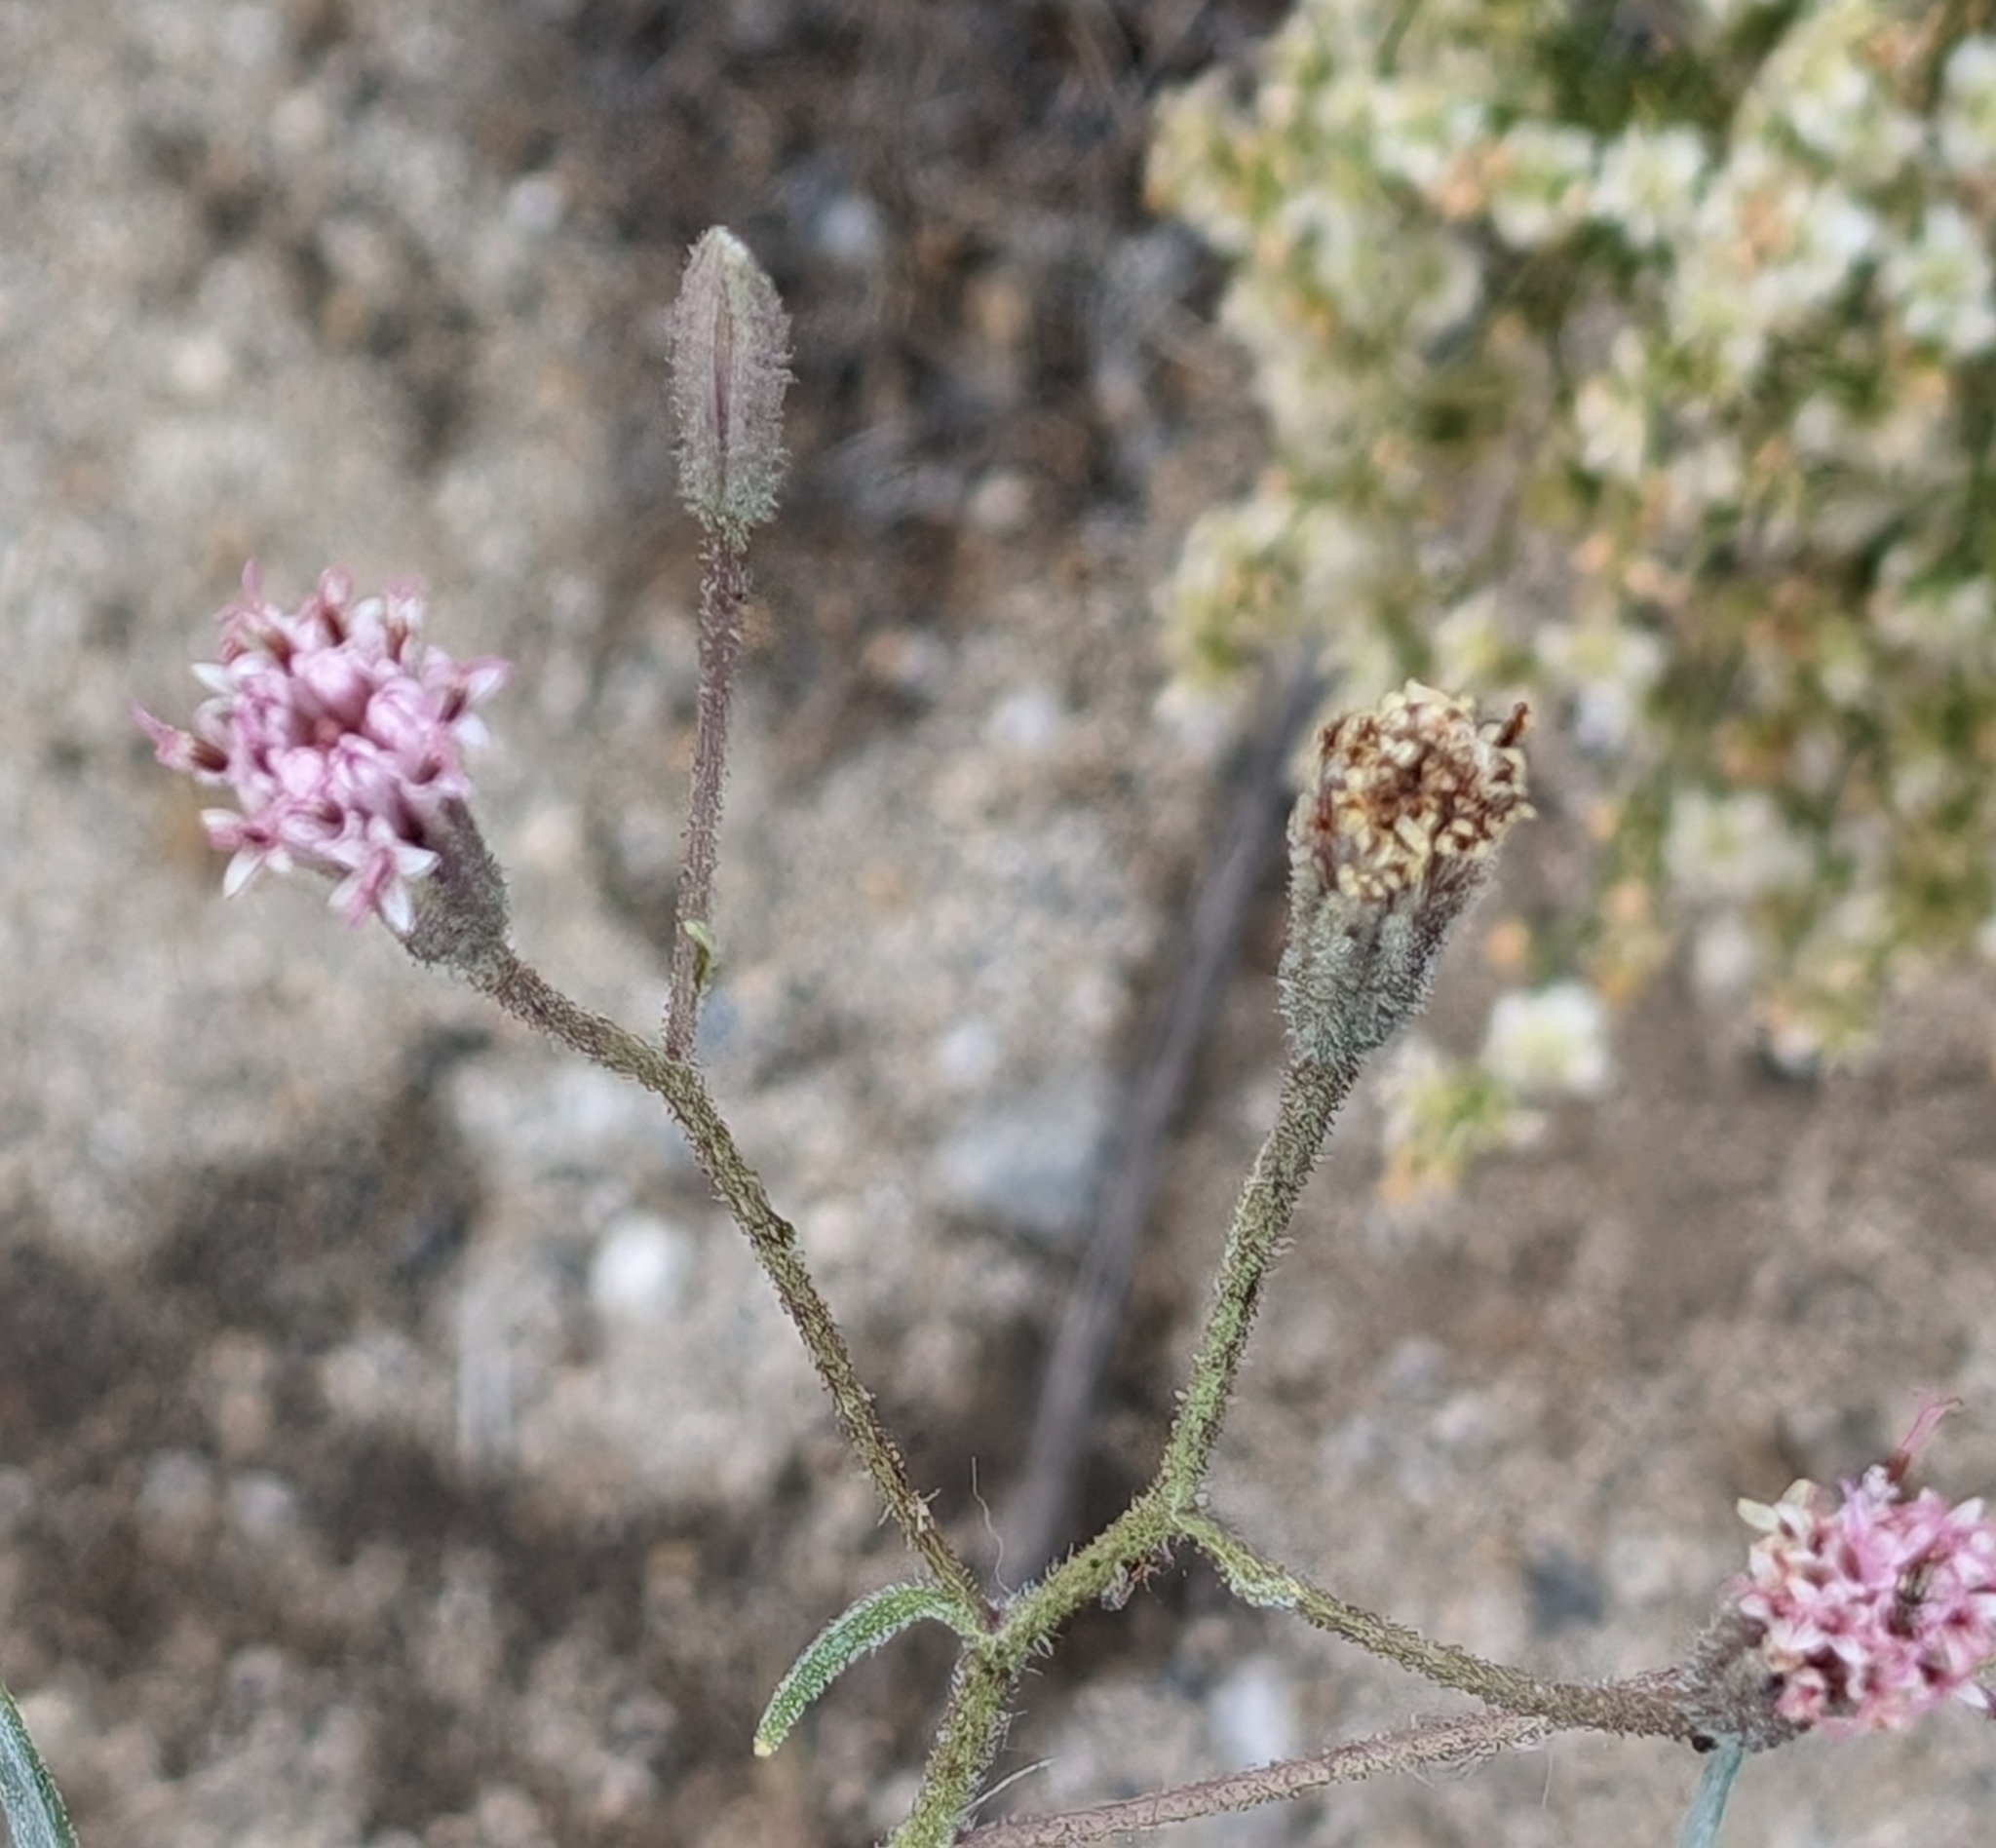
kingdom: Plantae
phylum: Tracheophyta
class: Magnoliopsida
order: Asterales
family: Asteraceae
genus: Palafoxia
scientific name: Palafoxia arida
